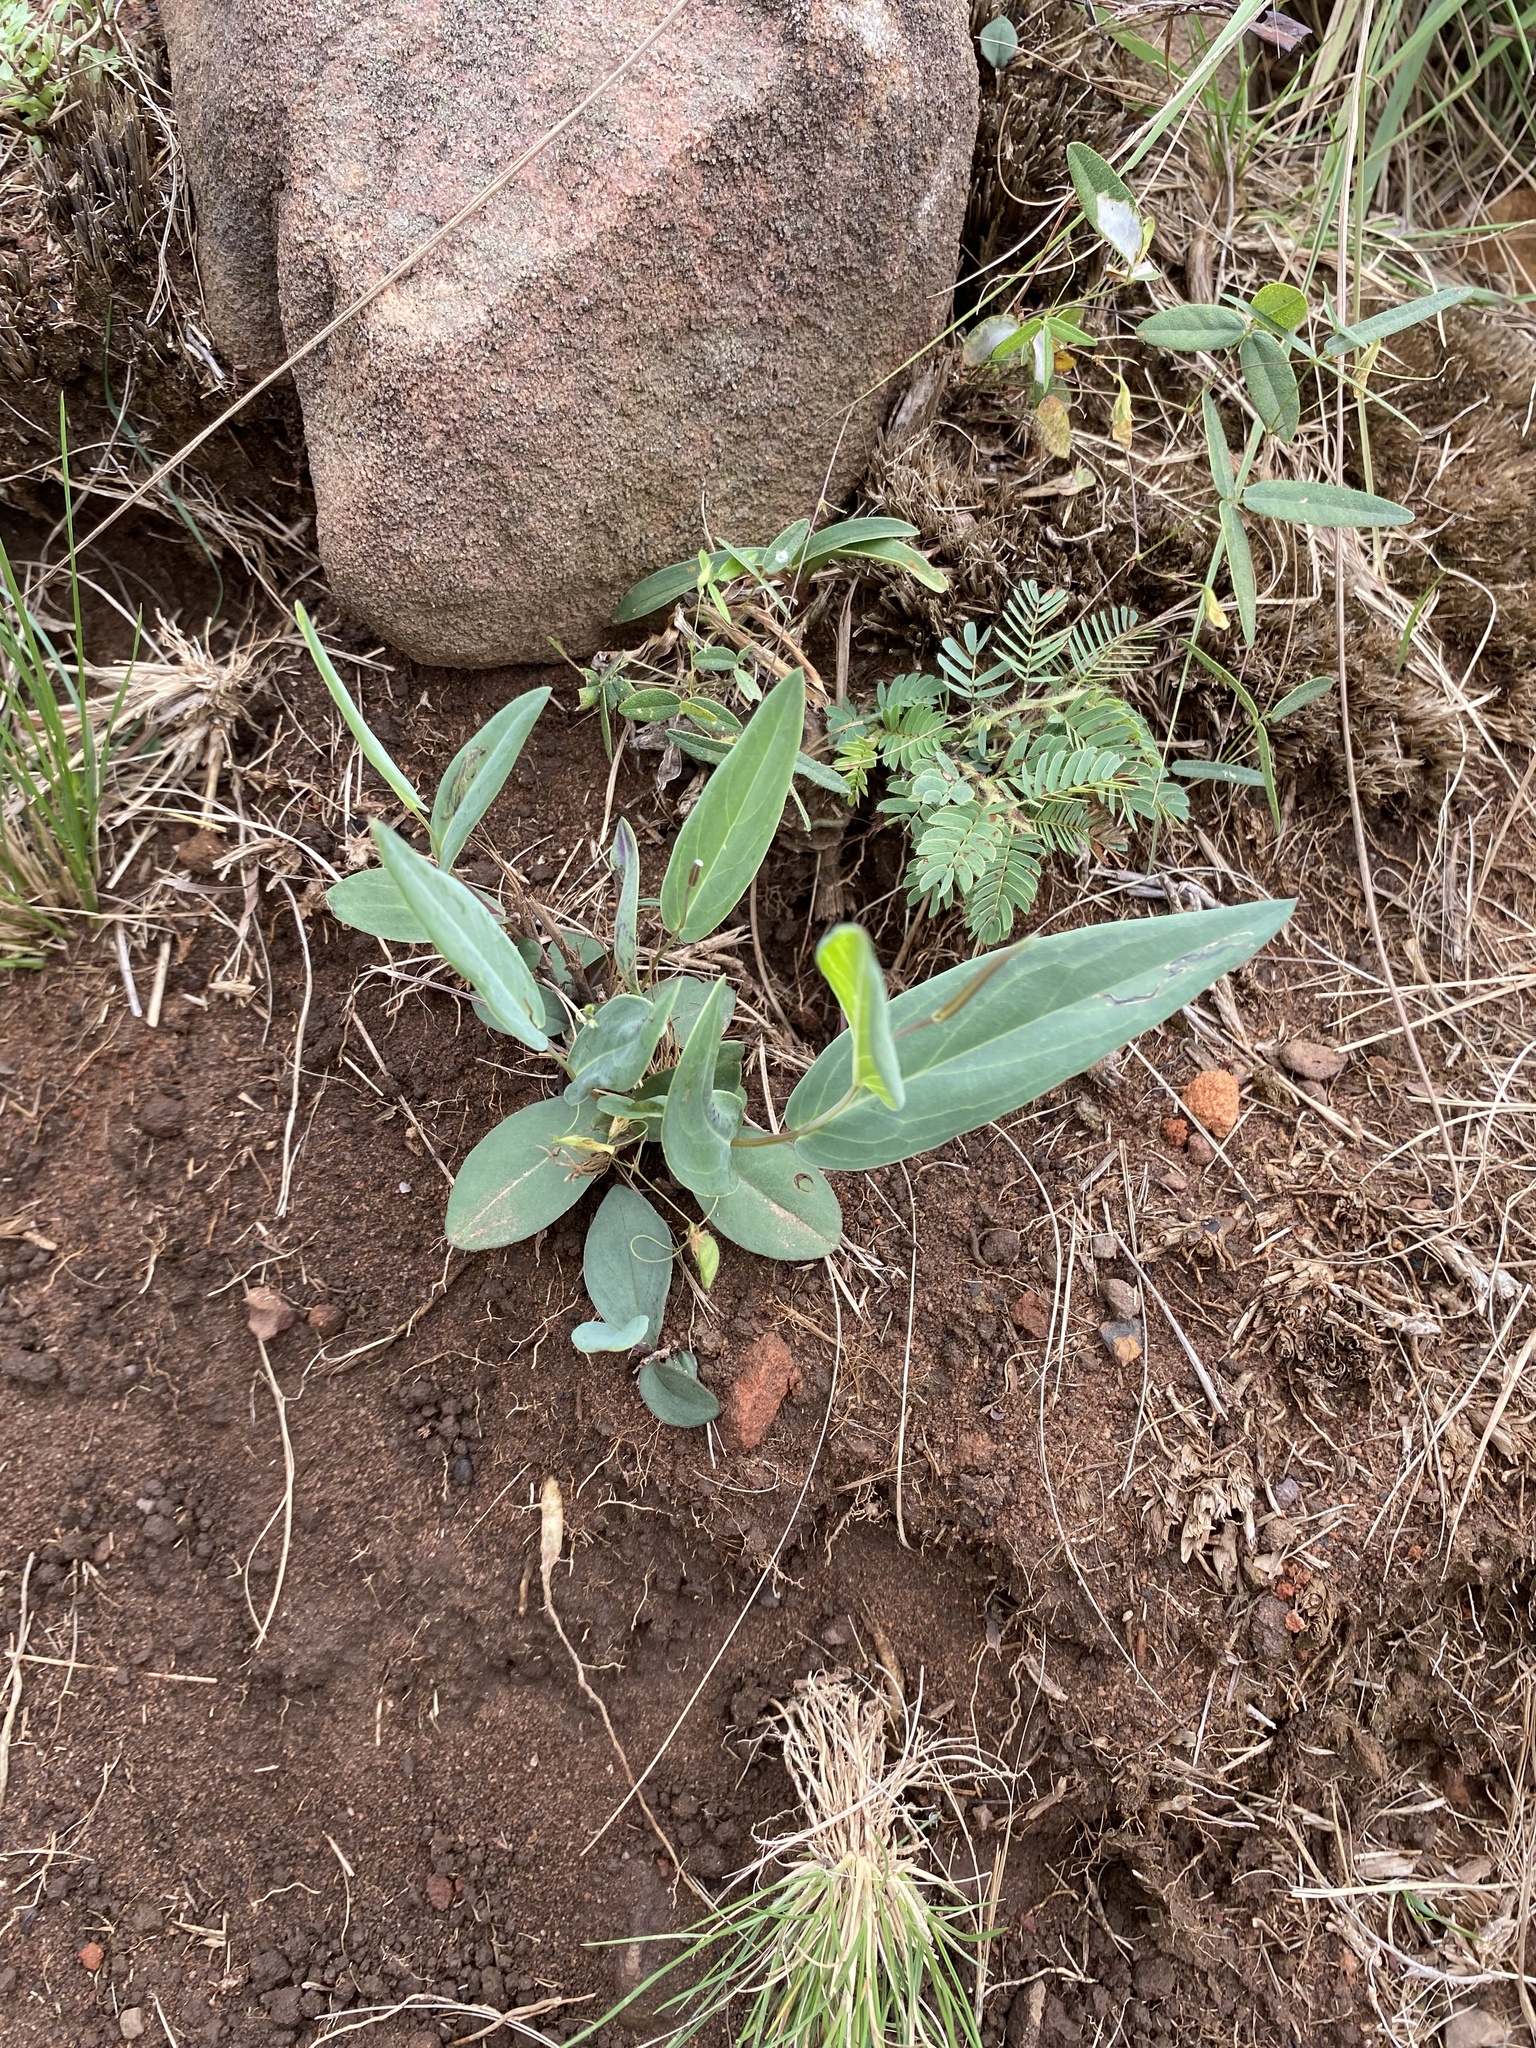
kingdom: Plantae
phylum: Tracheophyta
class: Magnoliopsida
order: Asterales
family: Asteraceae
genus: Senecio
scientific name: Senecio glaberrimus
